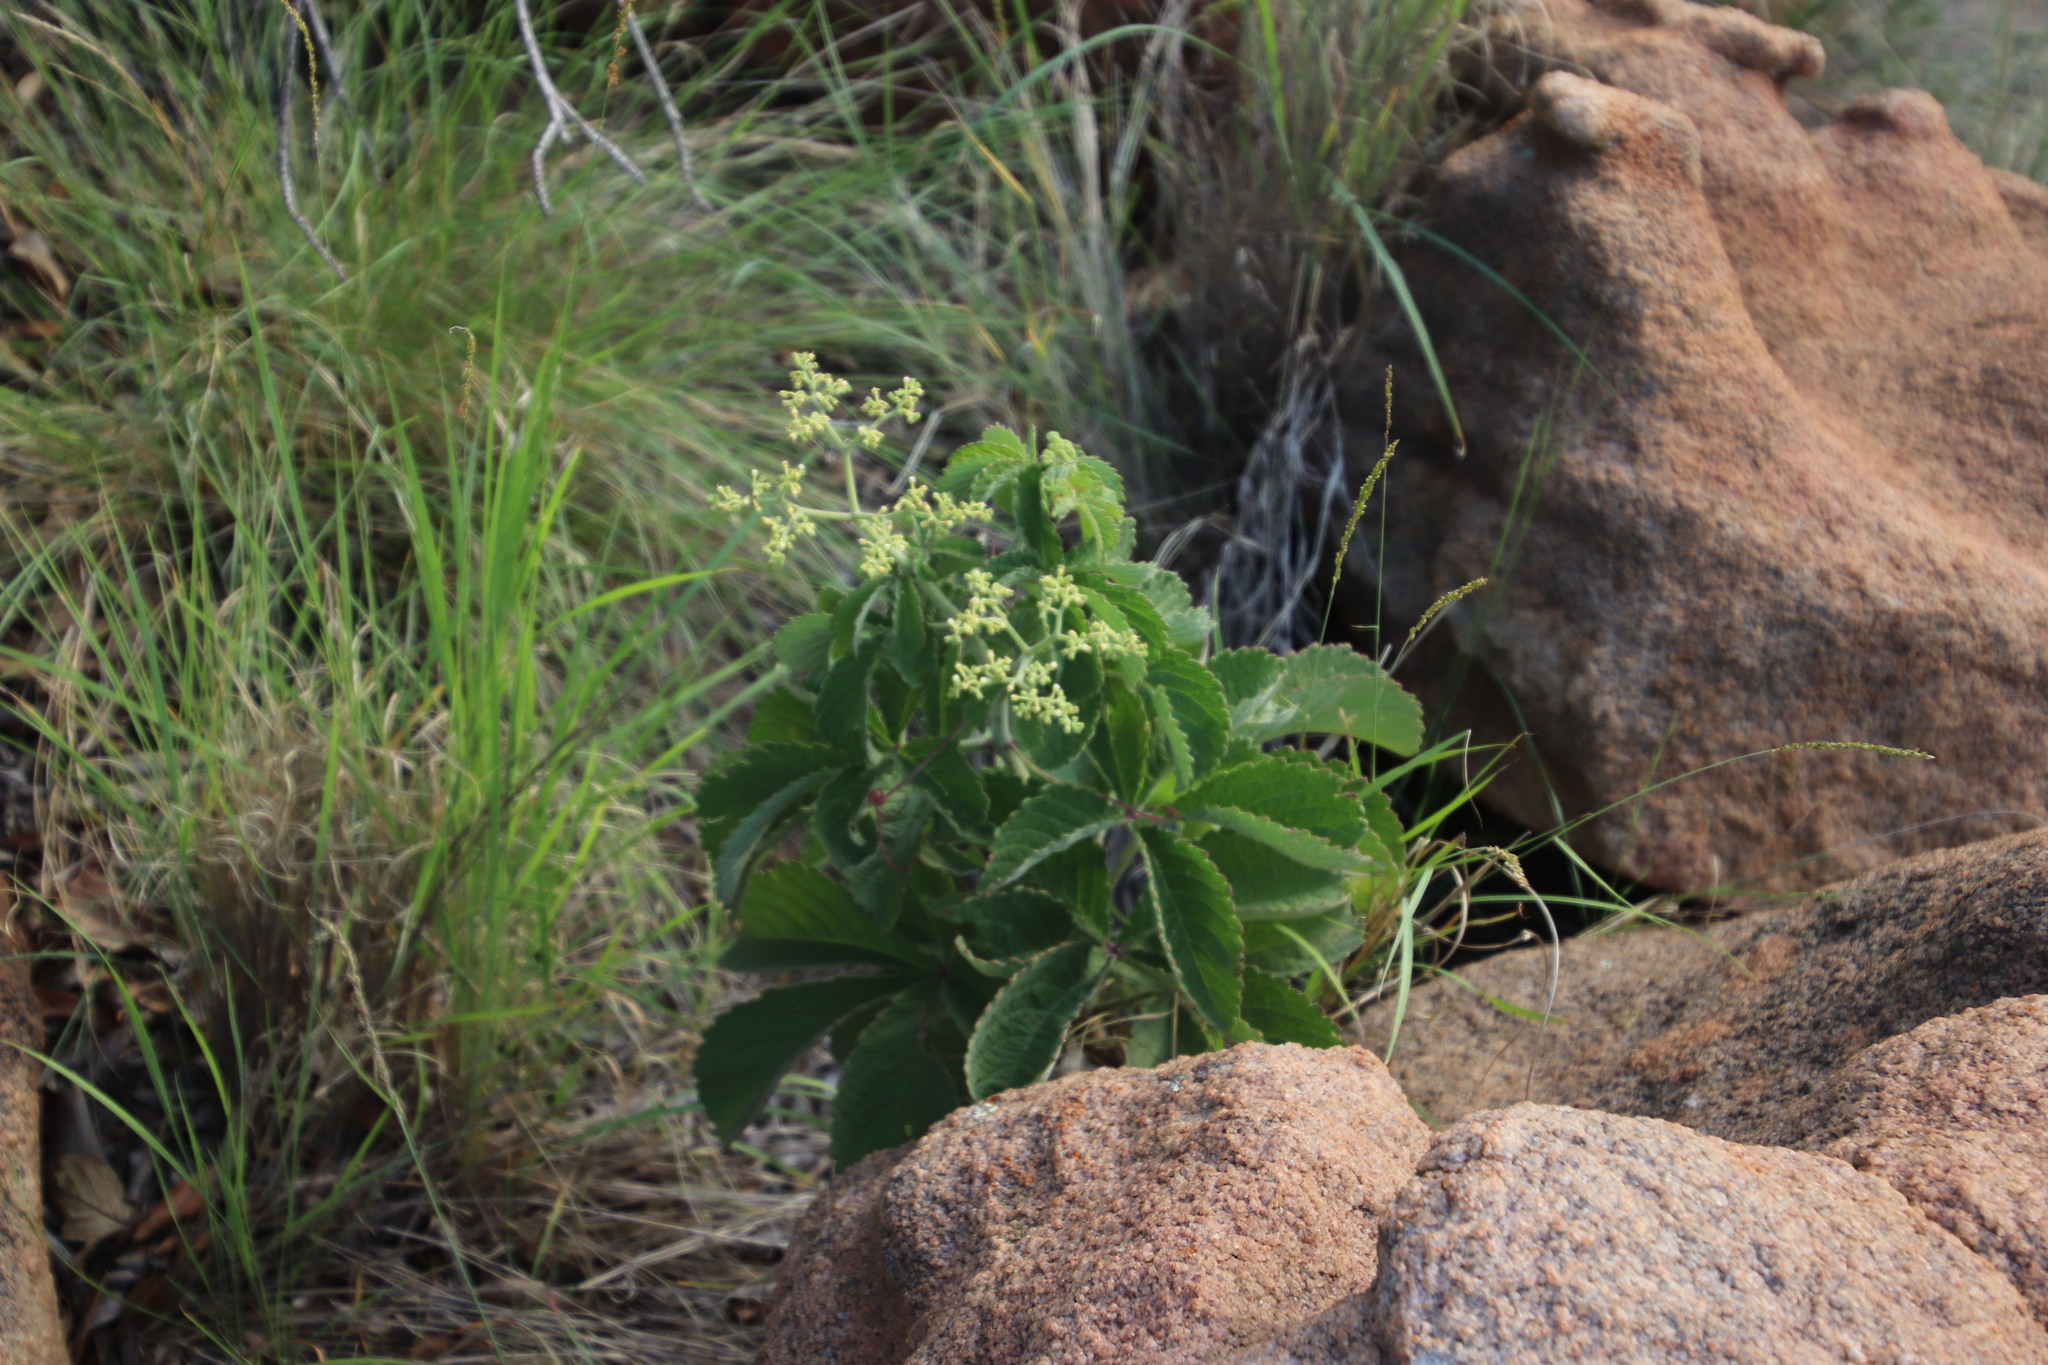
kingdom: Plantae
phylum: Tracheophyta
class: Magnoliopsida
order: Vitales
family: Vitaceae
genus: Cyphostemma
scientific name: Cyphostemma lanigerum
